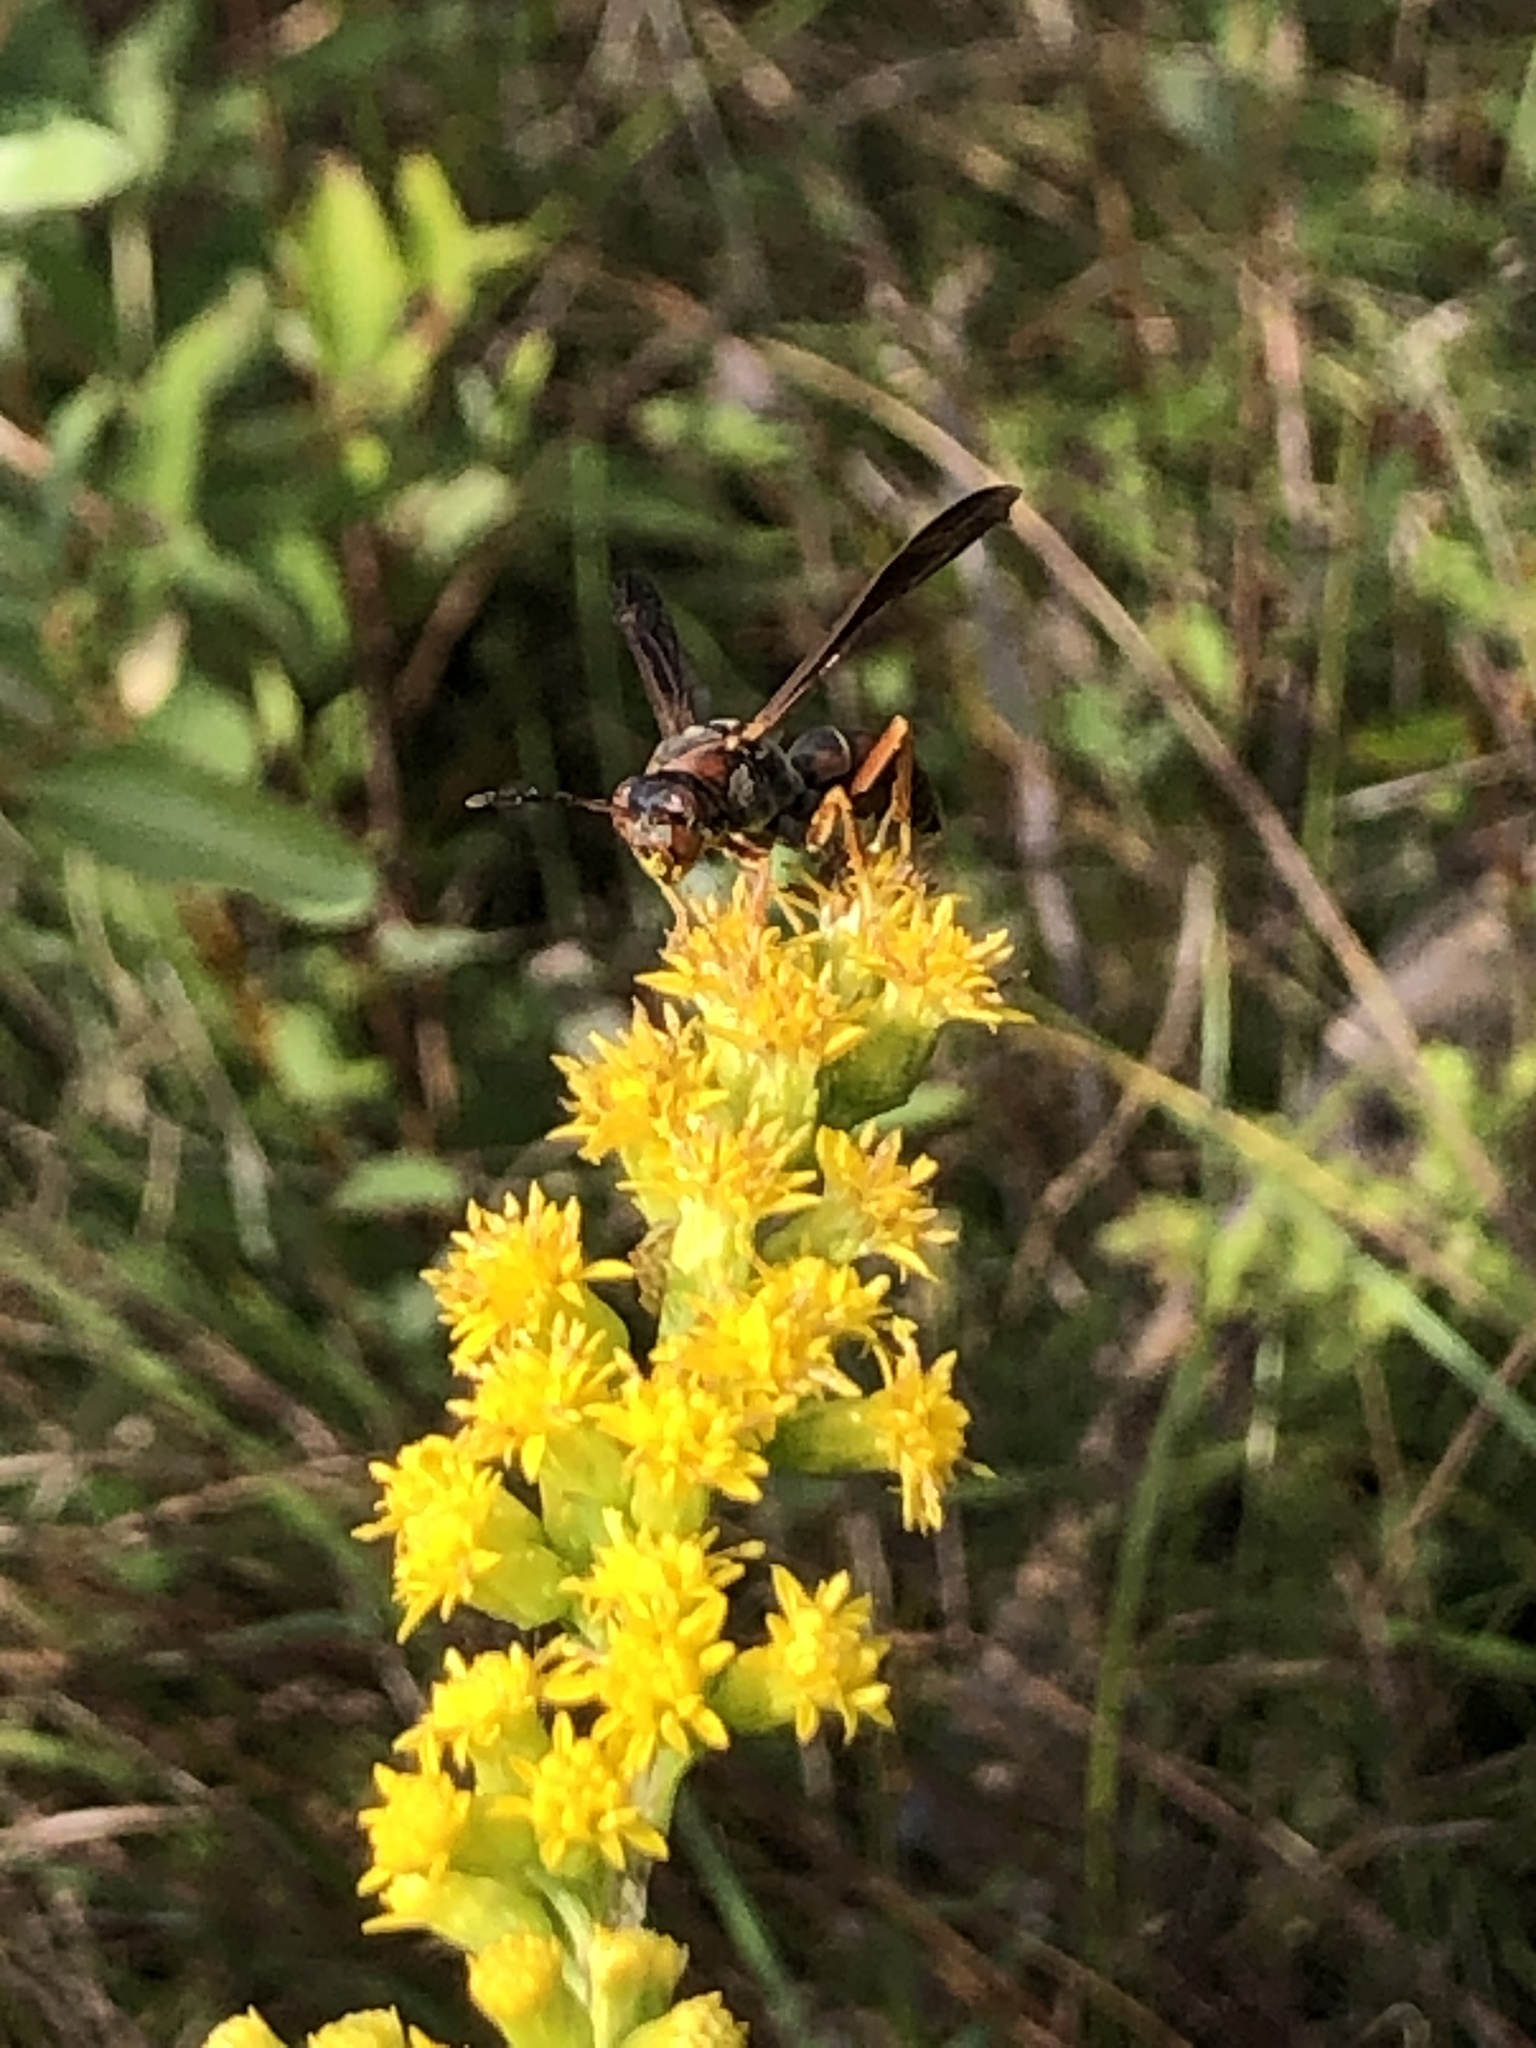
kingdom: Animalia
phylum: Arthropoda
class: Insecta
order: Hymenoptera
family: Eumenidae
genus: Polistes
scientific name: Polistes fuscatus
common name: Dark paper wasp
